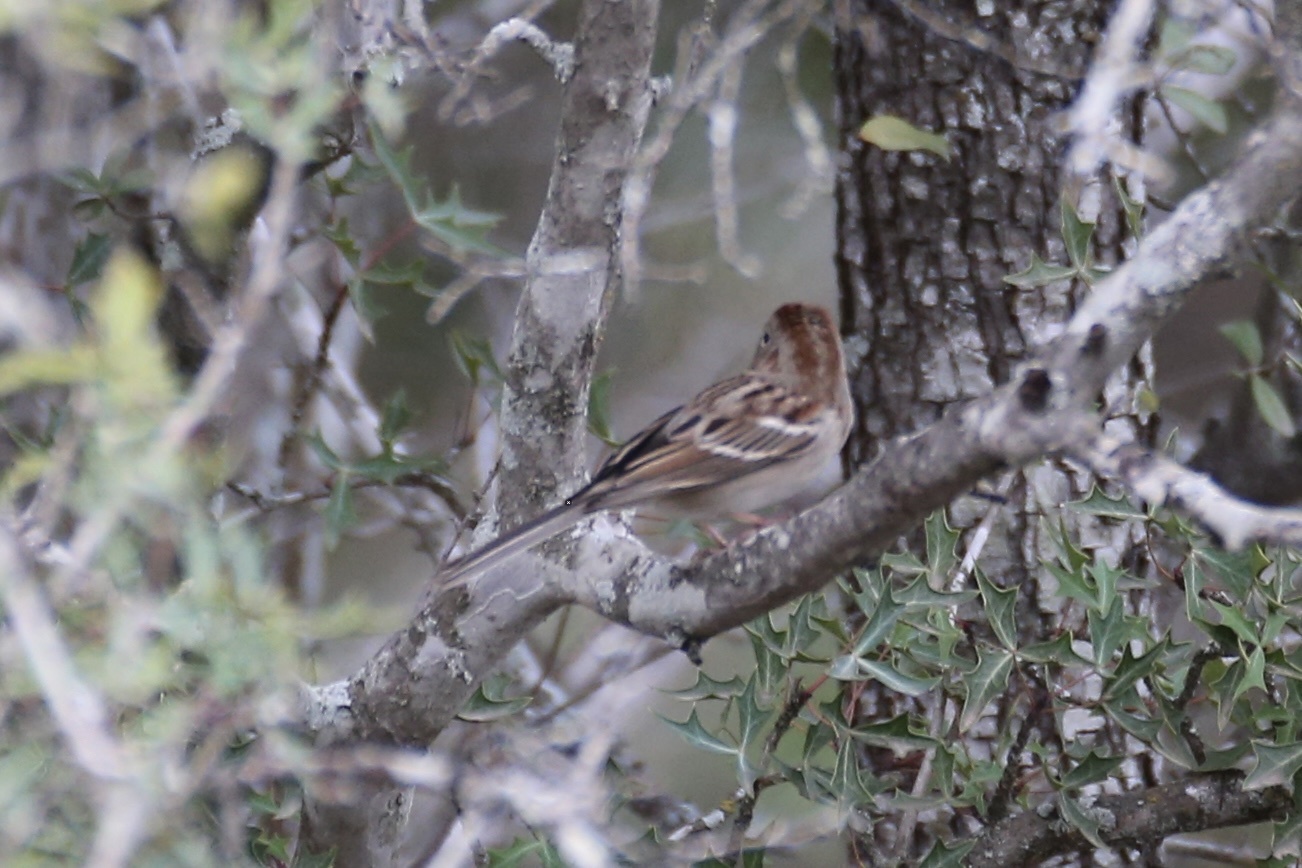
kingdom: Animalia
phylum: Chordata
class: Aves
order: Passeriformes
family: Passerellidae
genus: Spizella
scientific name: Spizella pusilla
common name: Field sparrow
